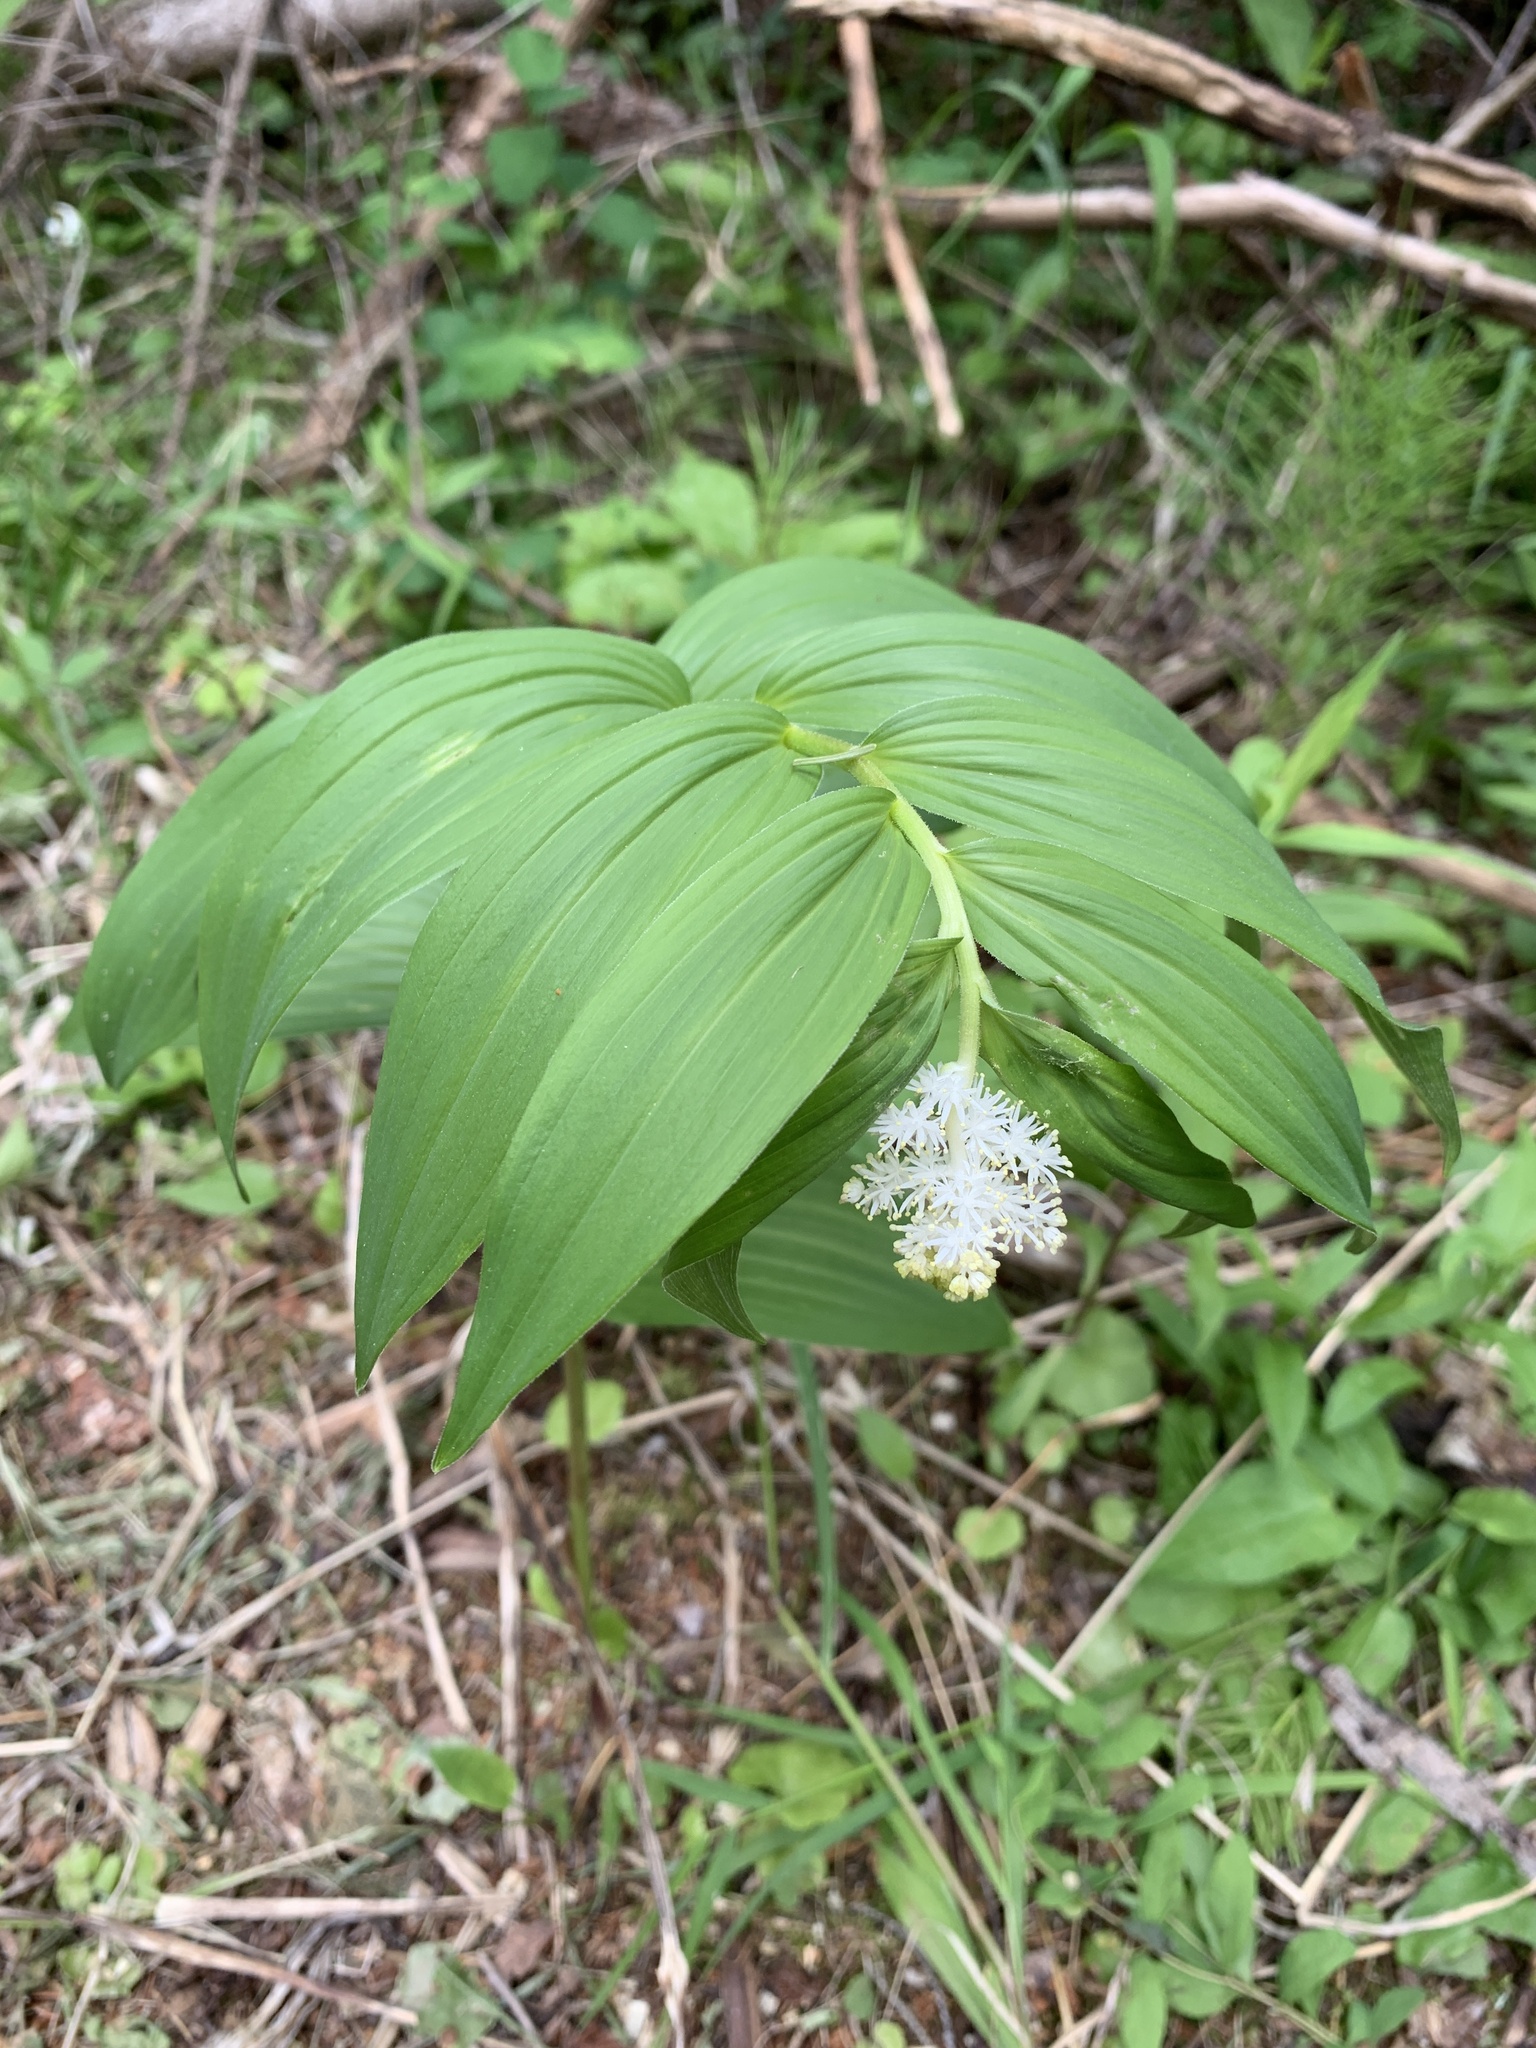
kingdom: Plantae
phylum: Tracheophyta
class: Liliopsida
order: Asparagales
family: Asparagaceae
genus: Maianthemum
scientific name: Maianthemum racemosum
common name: False spikenard
